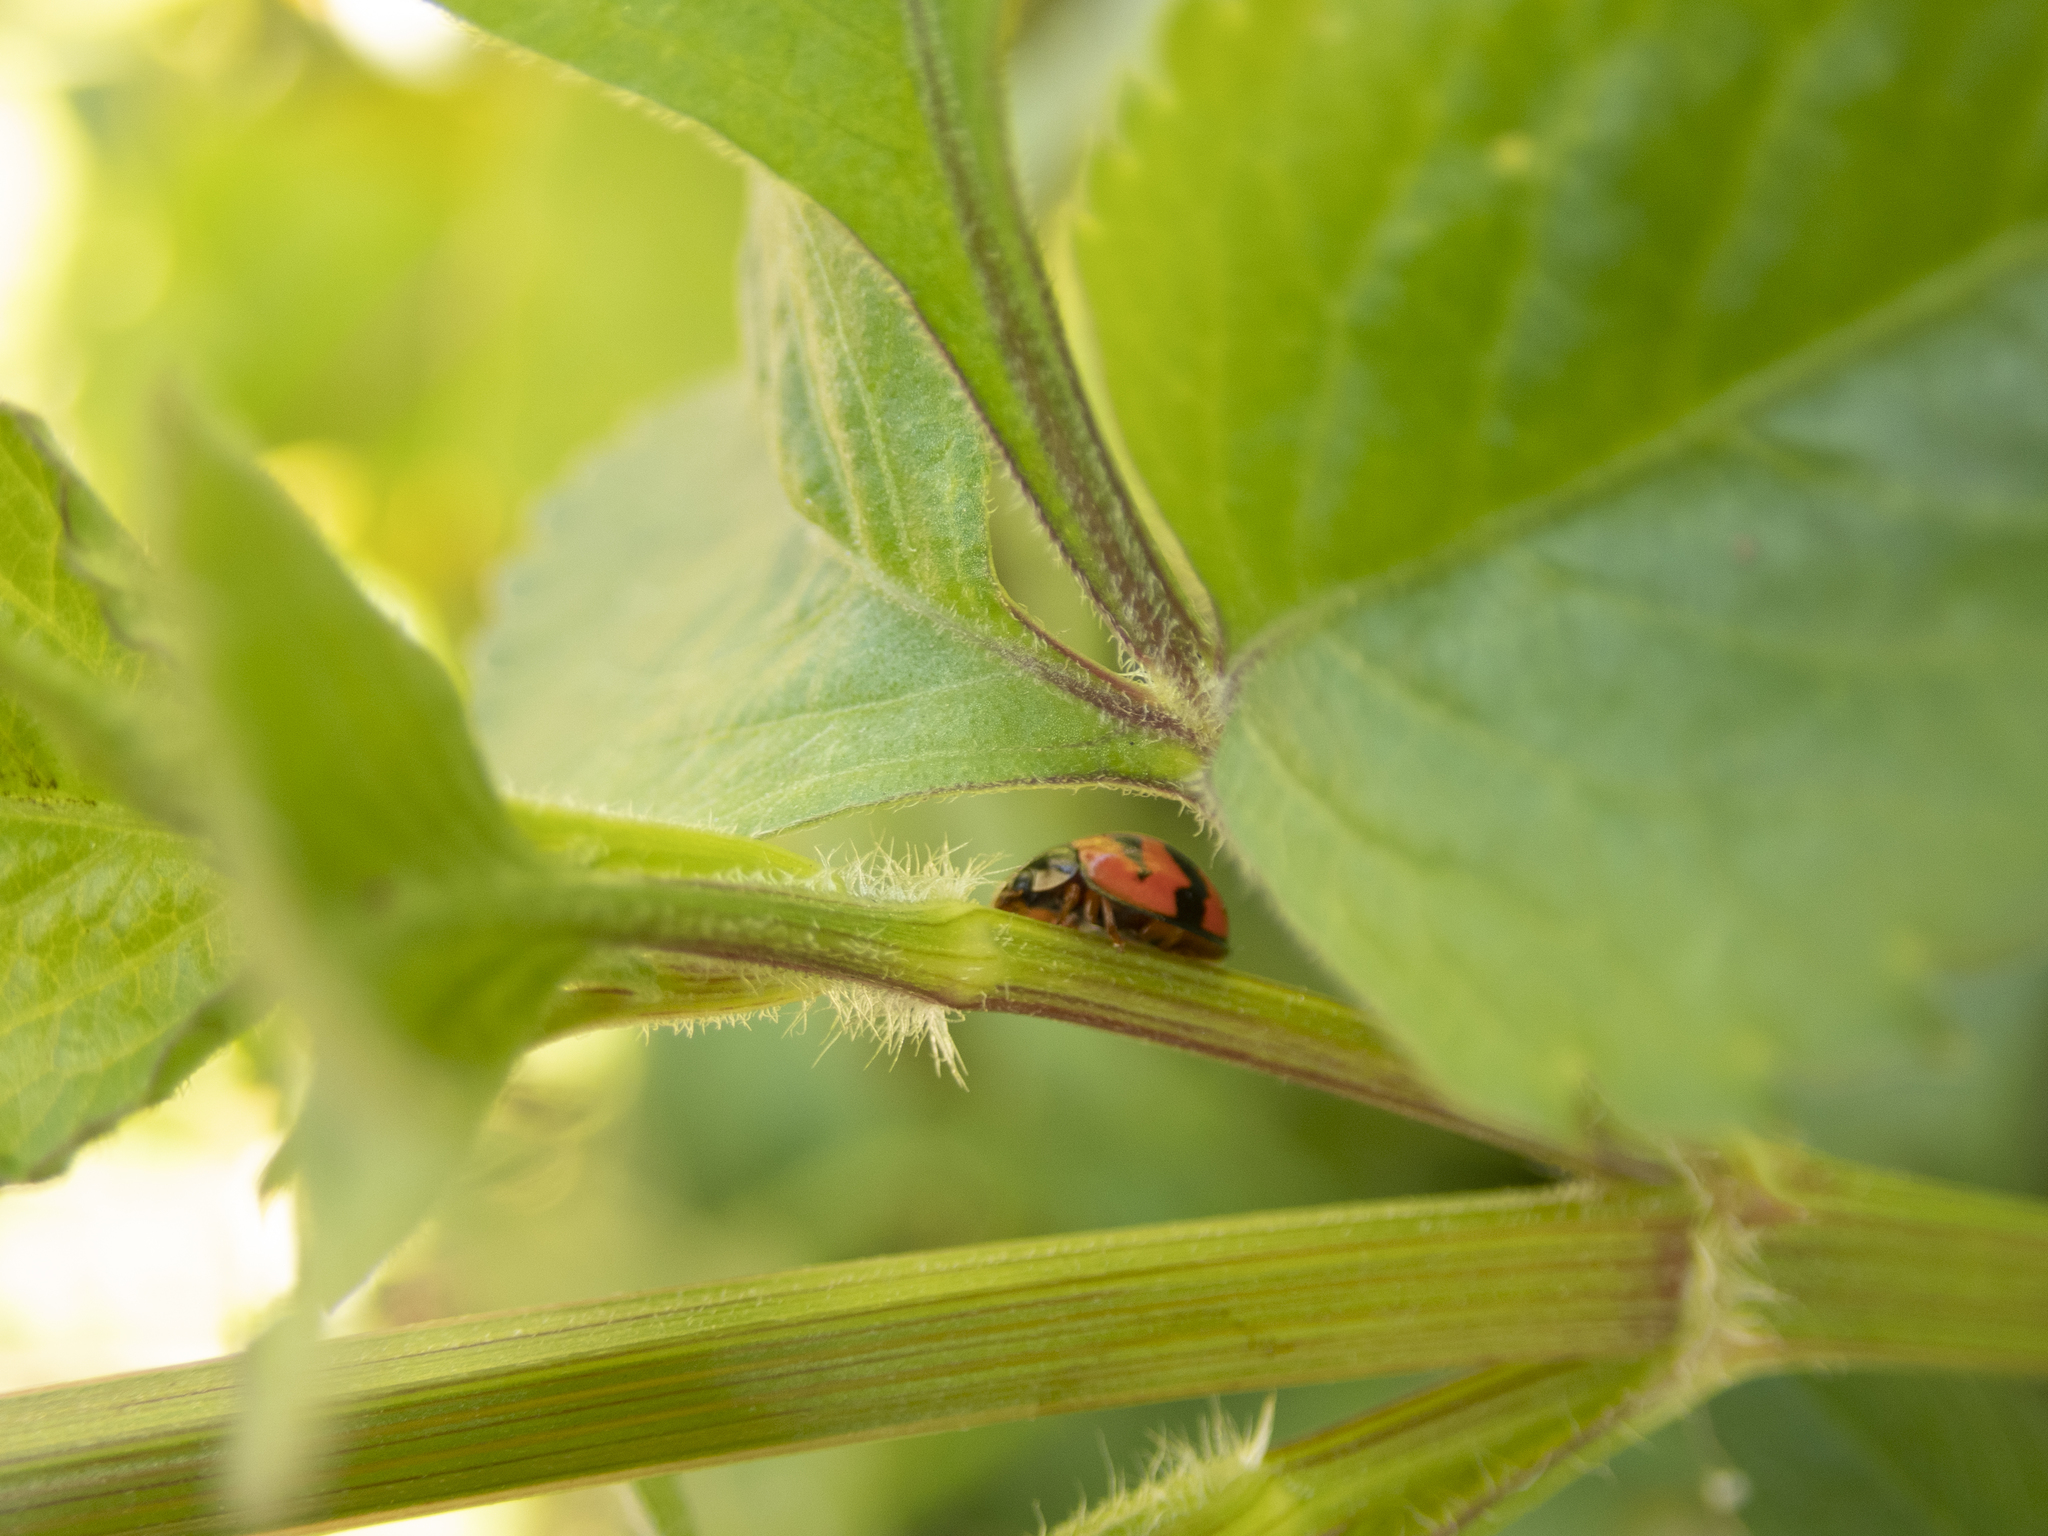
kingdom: Animalia
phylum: Arthropoda
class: Insecta
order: Coleoptera
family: Coccinellidae
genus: Cheilomenes
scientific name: Cheilomenes sexmaculata
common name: Ladybird beetle
